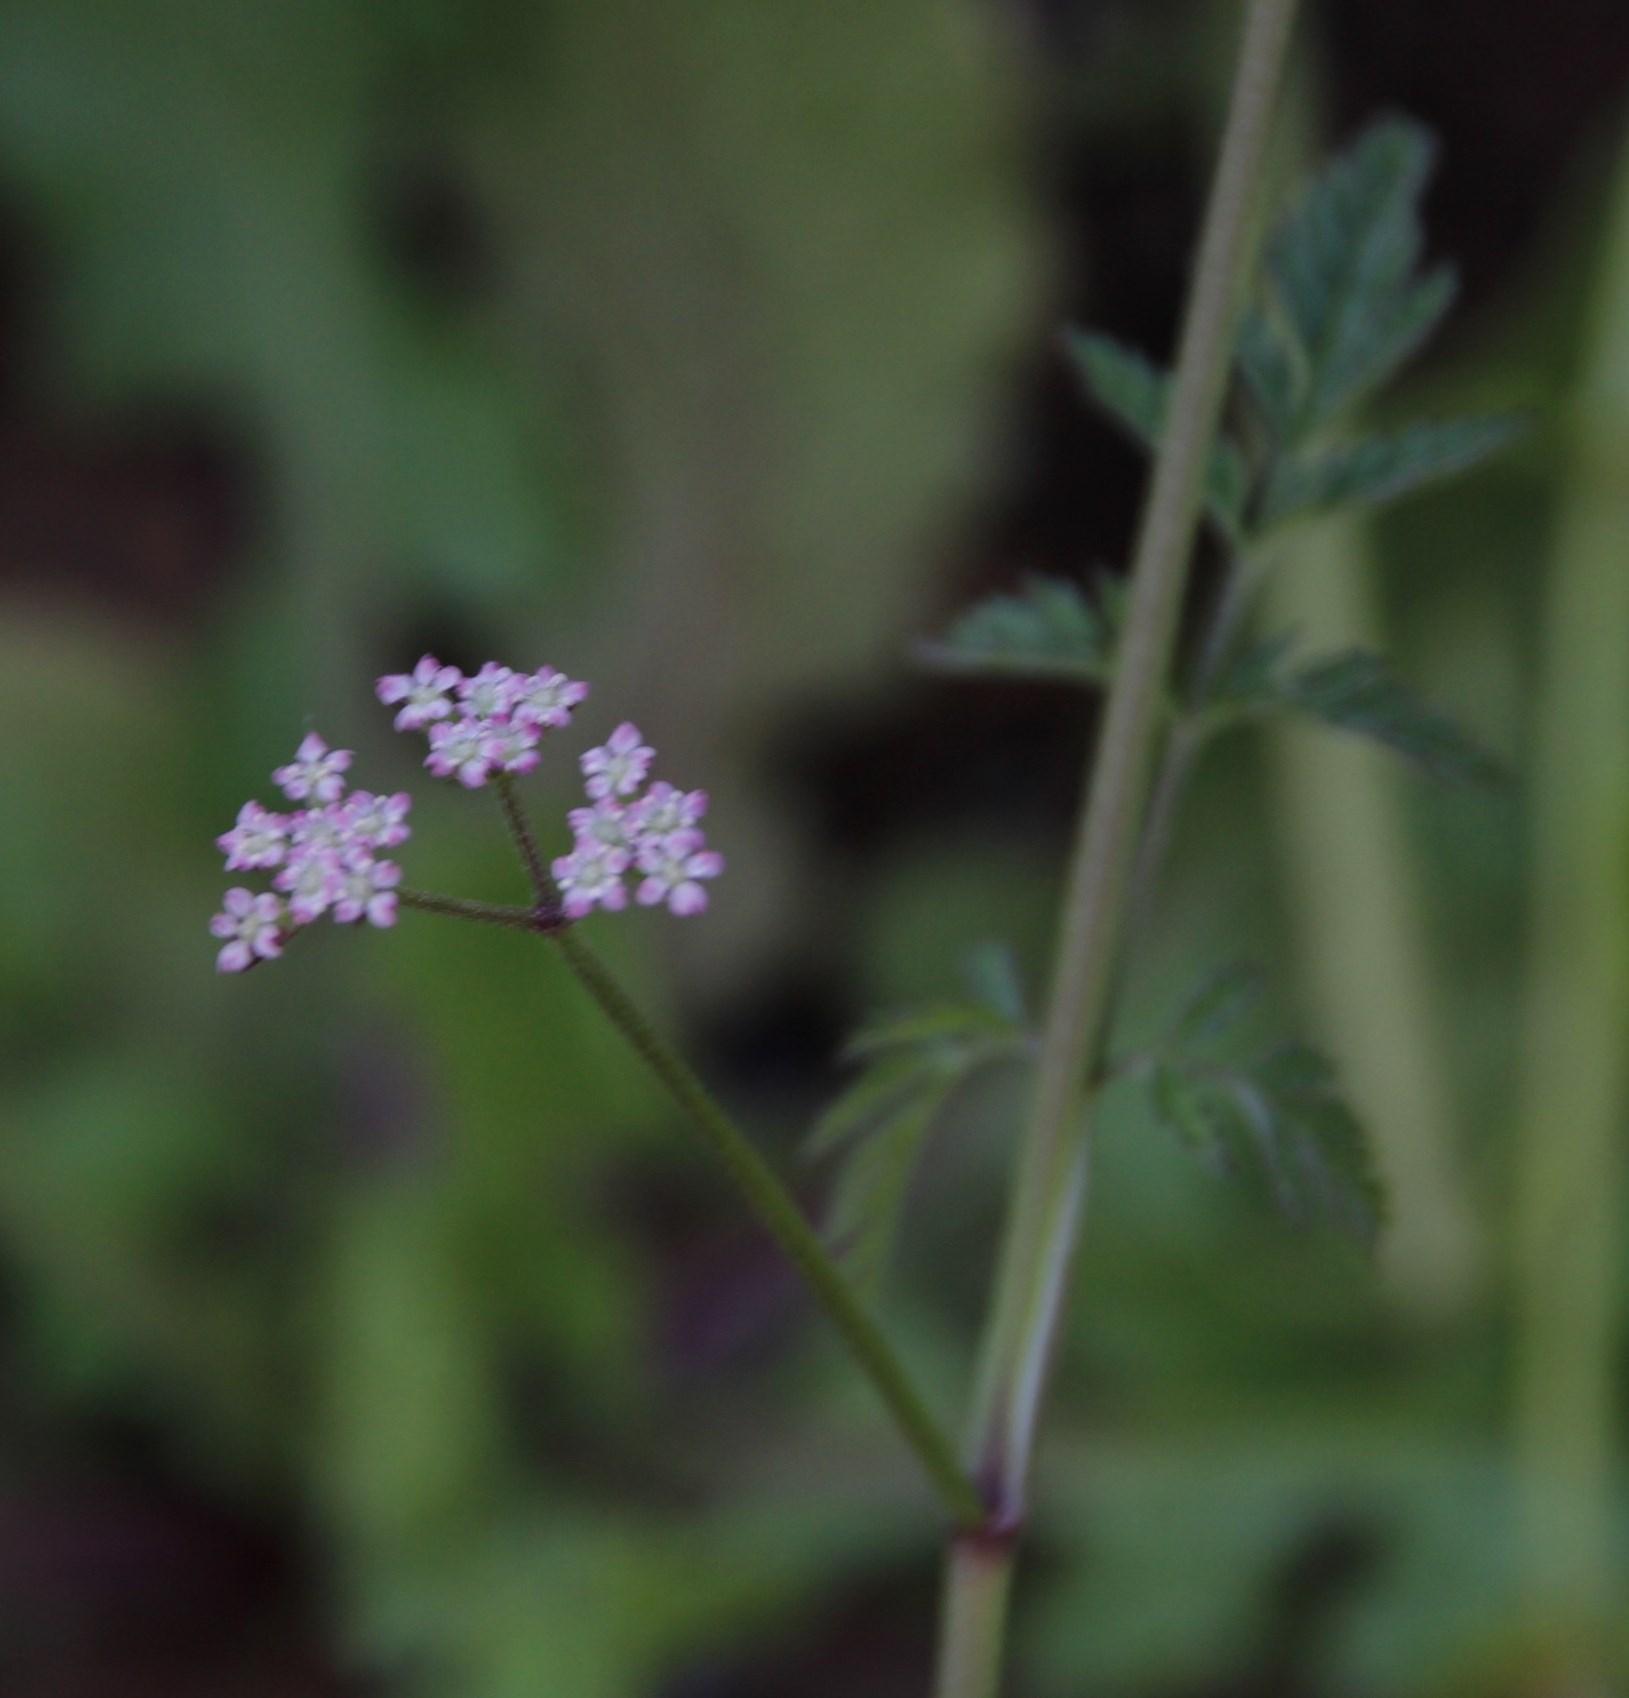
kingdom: Plantae
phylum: Tracheophyta
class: Magnoliopsida
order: Apiales
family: Apiaceae
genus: Torilis
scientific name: Torilis arvensis
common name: Spreading hedge-parsley
